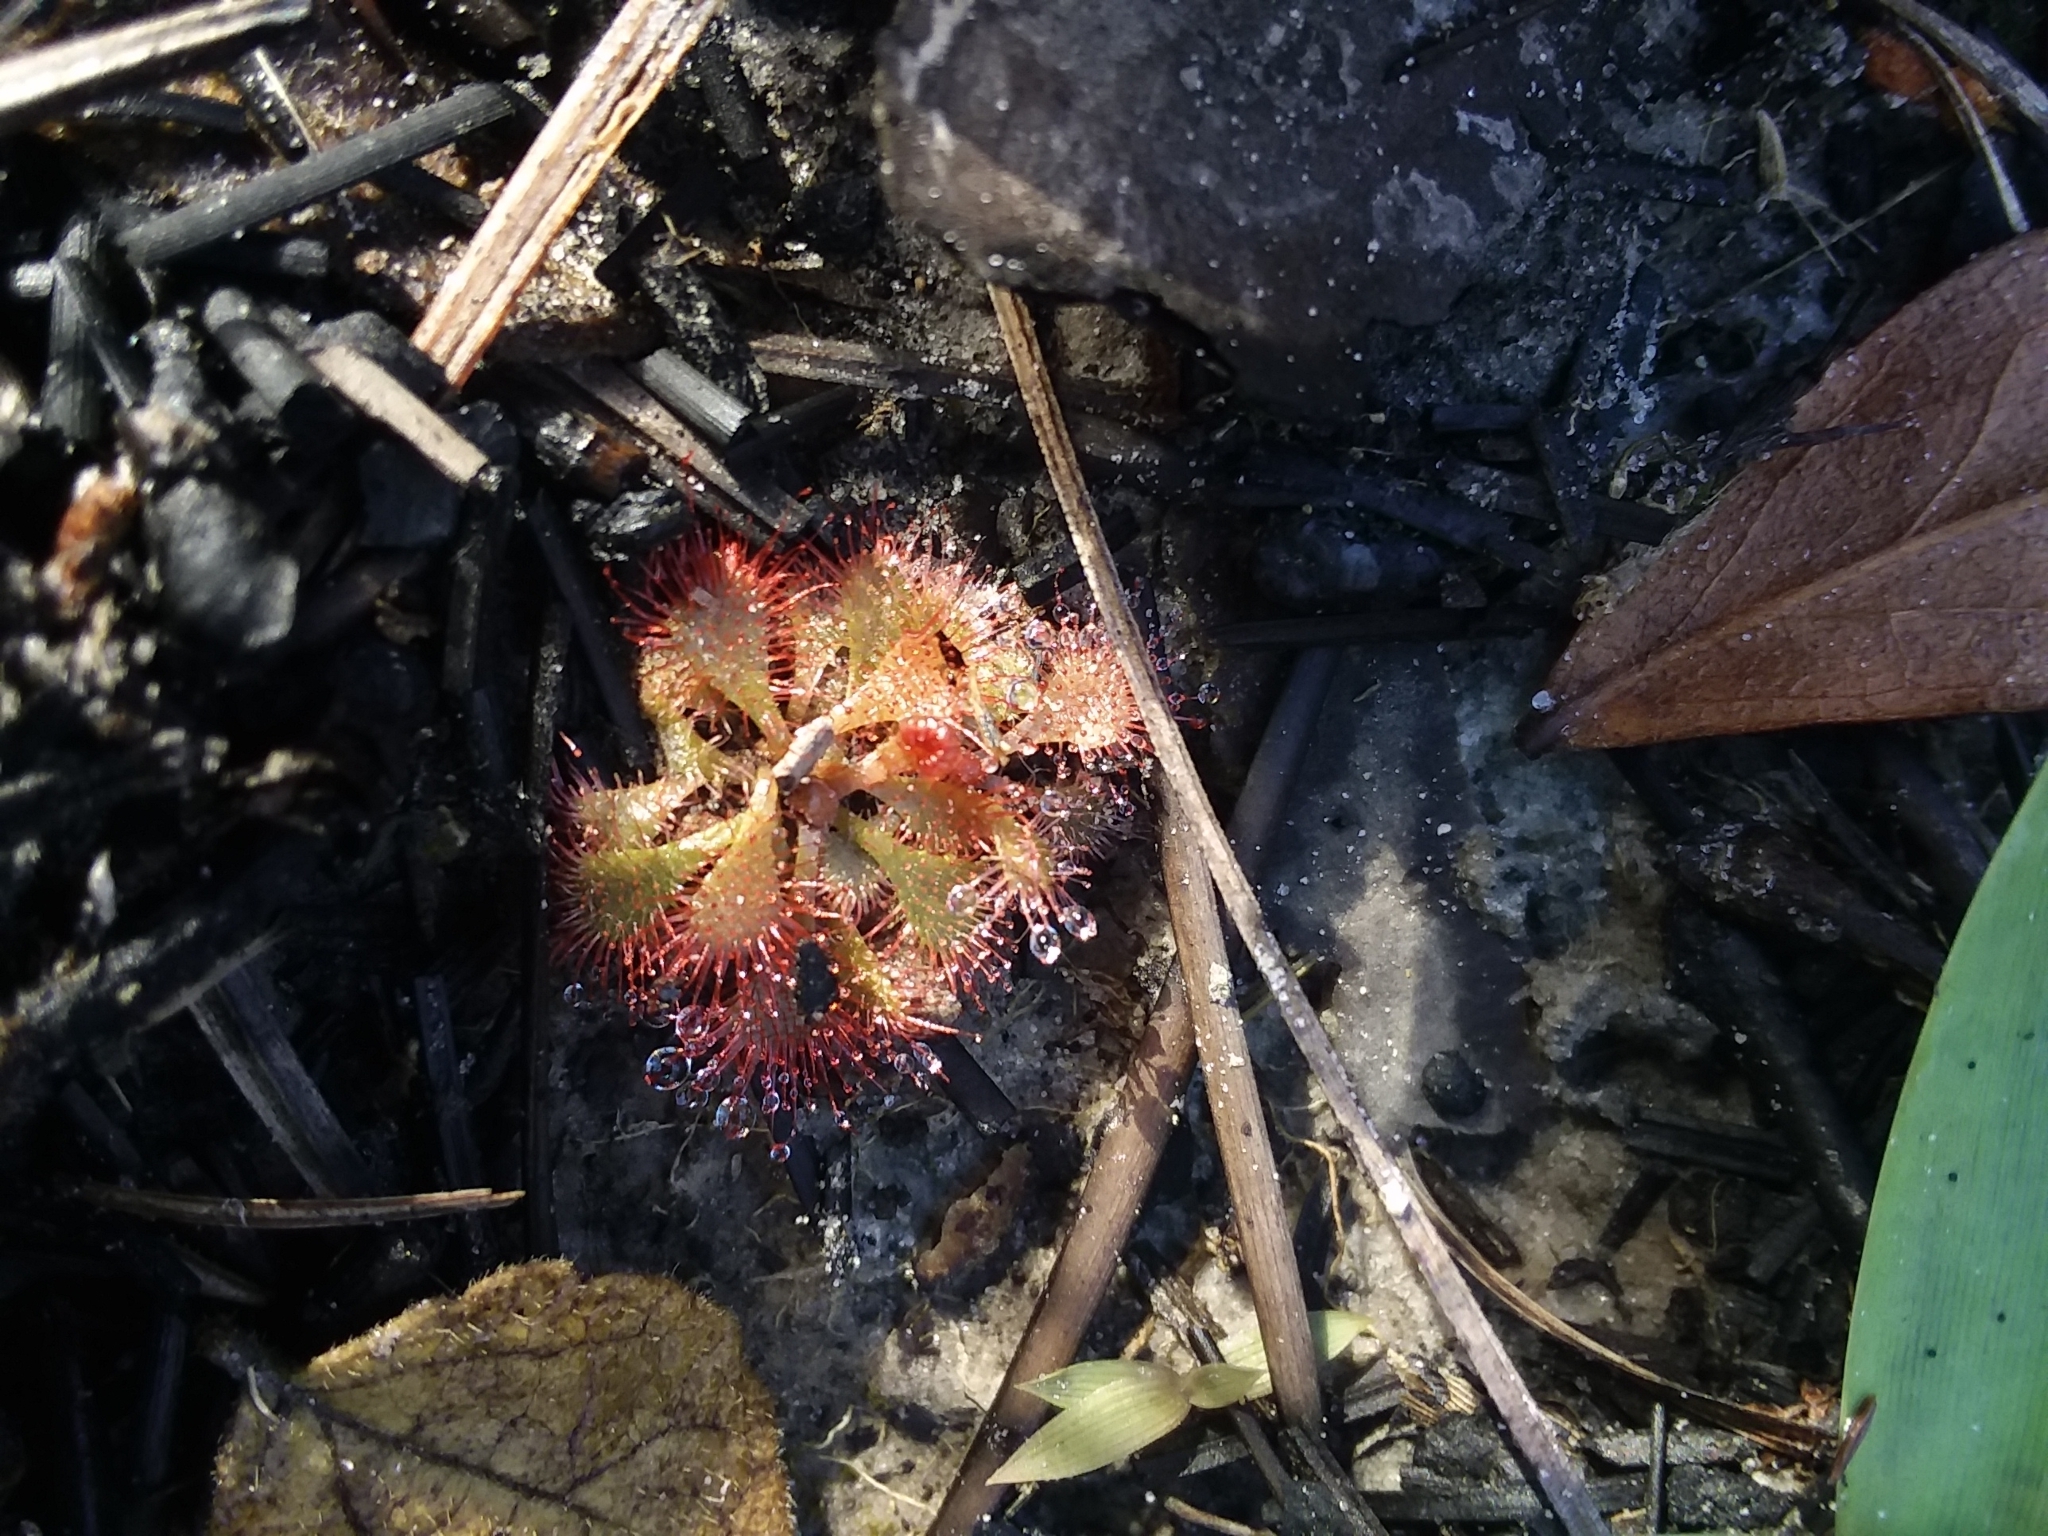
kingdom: Plantae
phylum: Tracheophyta
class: Magnoliopsida
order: Caryophyllales
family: Droseraceae
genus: Drosera
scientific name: Drosera brevifolia
